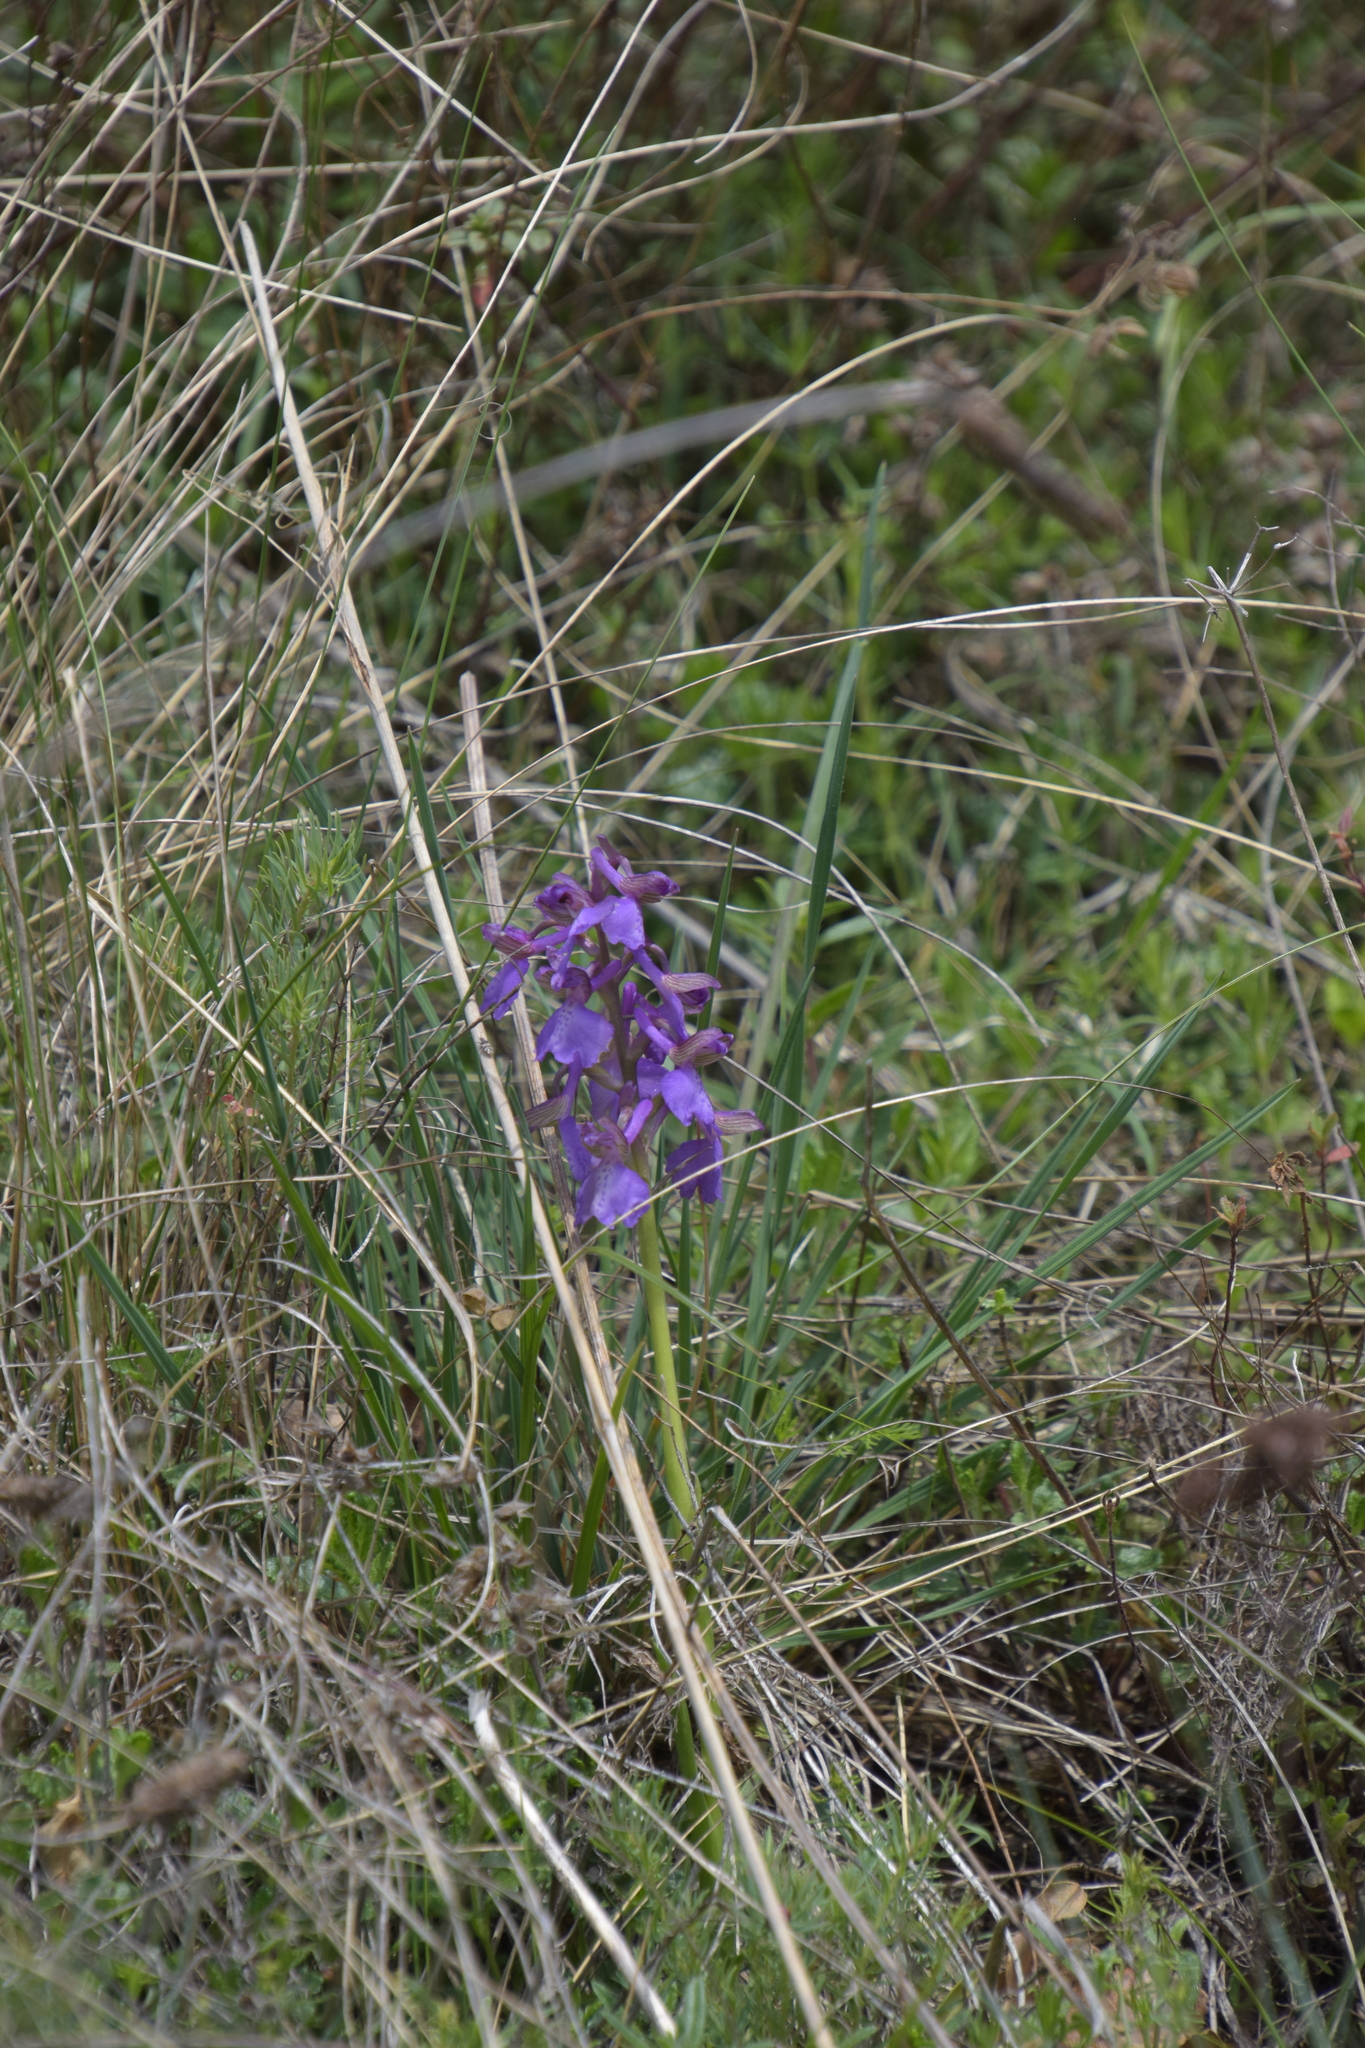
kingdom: Plantae
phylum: Tracheophyta
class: Liliopsida
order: Asparagales
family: Orchidaceae
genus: Anacamptis
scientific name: Anacamptis morio
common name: Green-winged orchid
